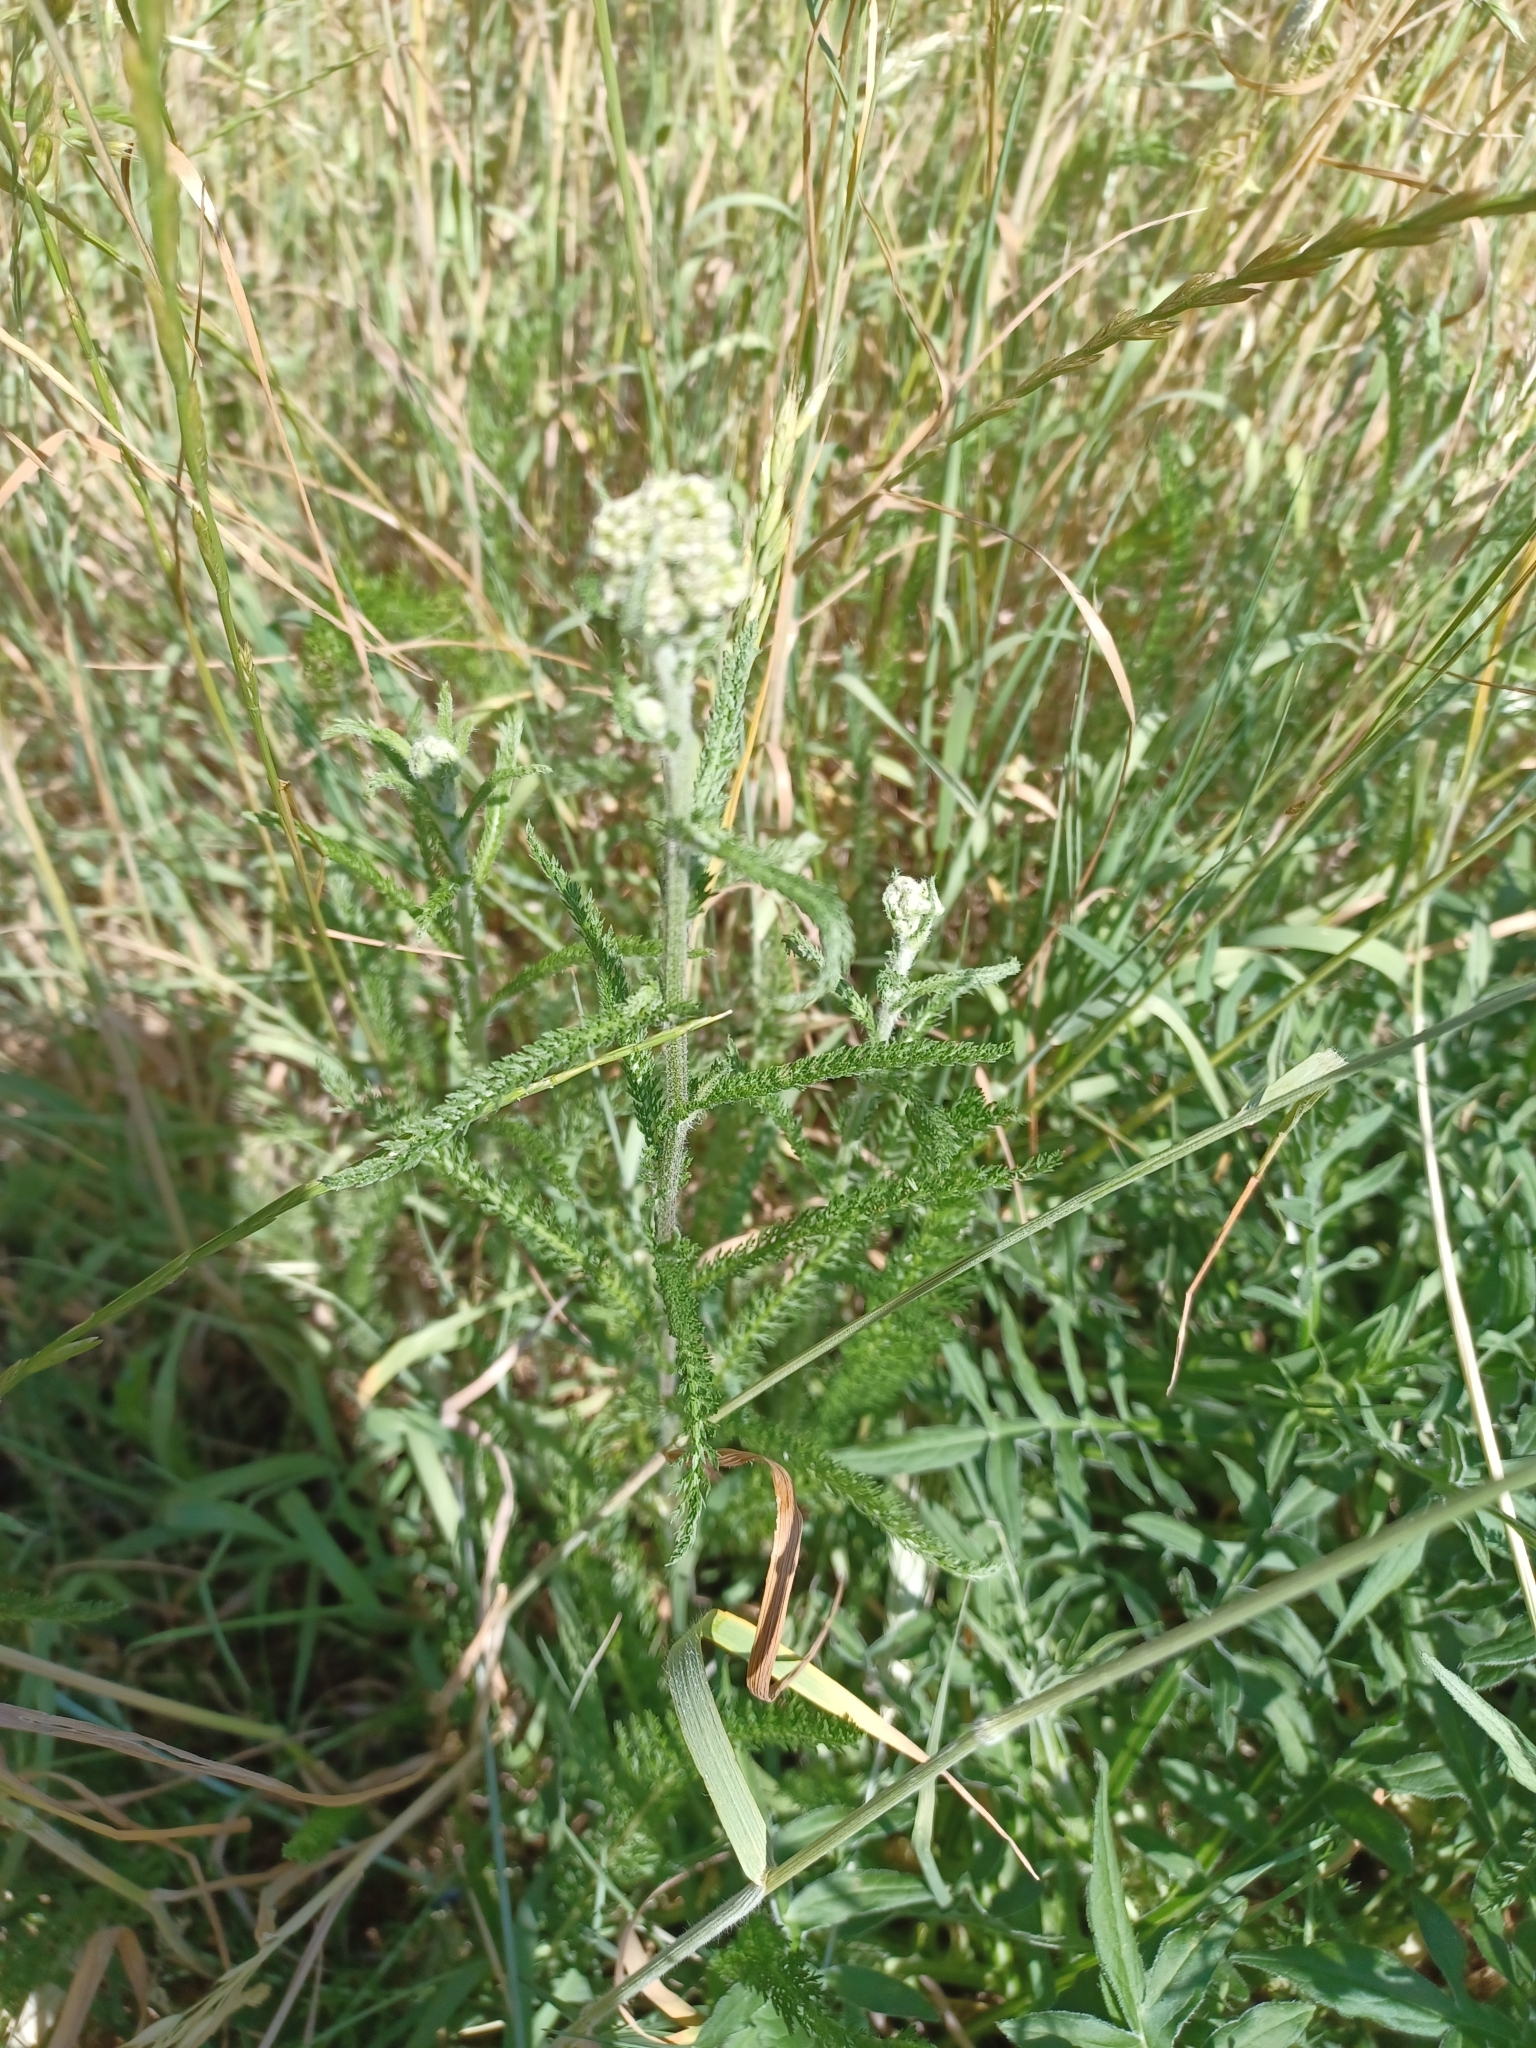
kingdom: Plantae
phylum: Tracheophyta
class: Magnoliopsida
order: Asterales
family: Asteraceae
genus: Achillea
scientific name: Achillea millefolium
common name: Yarrow
